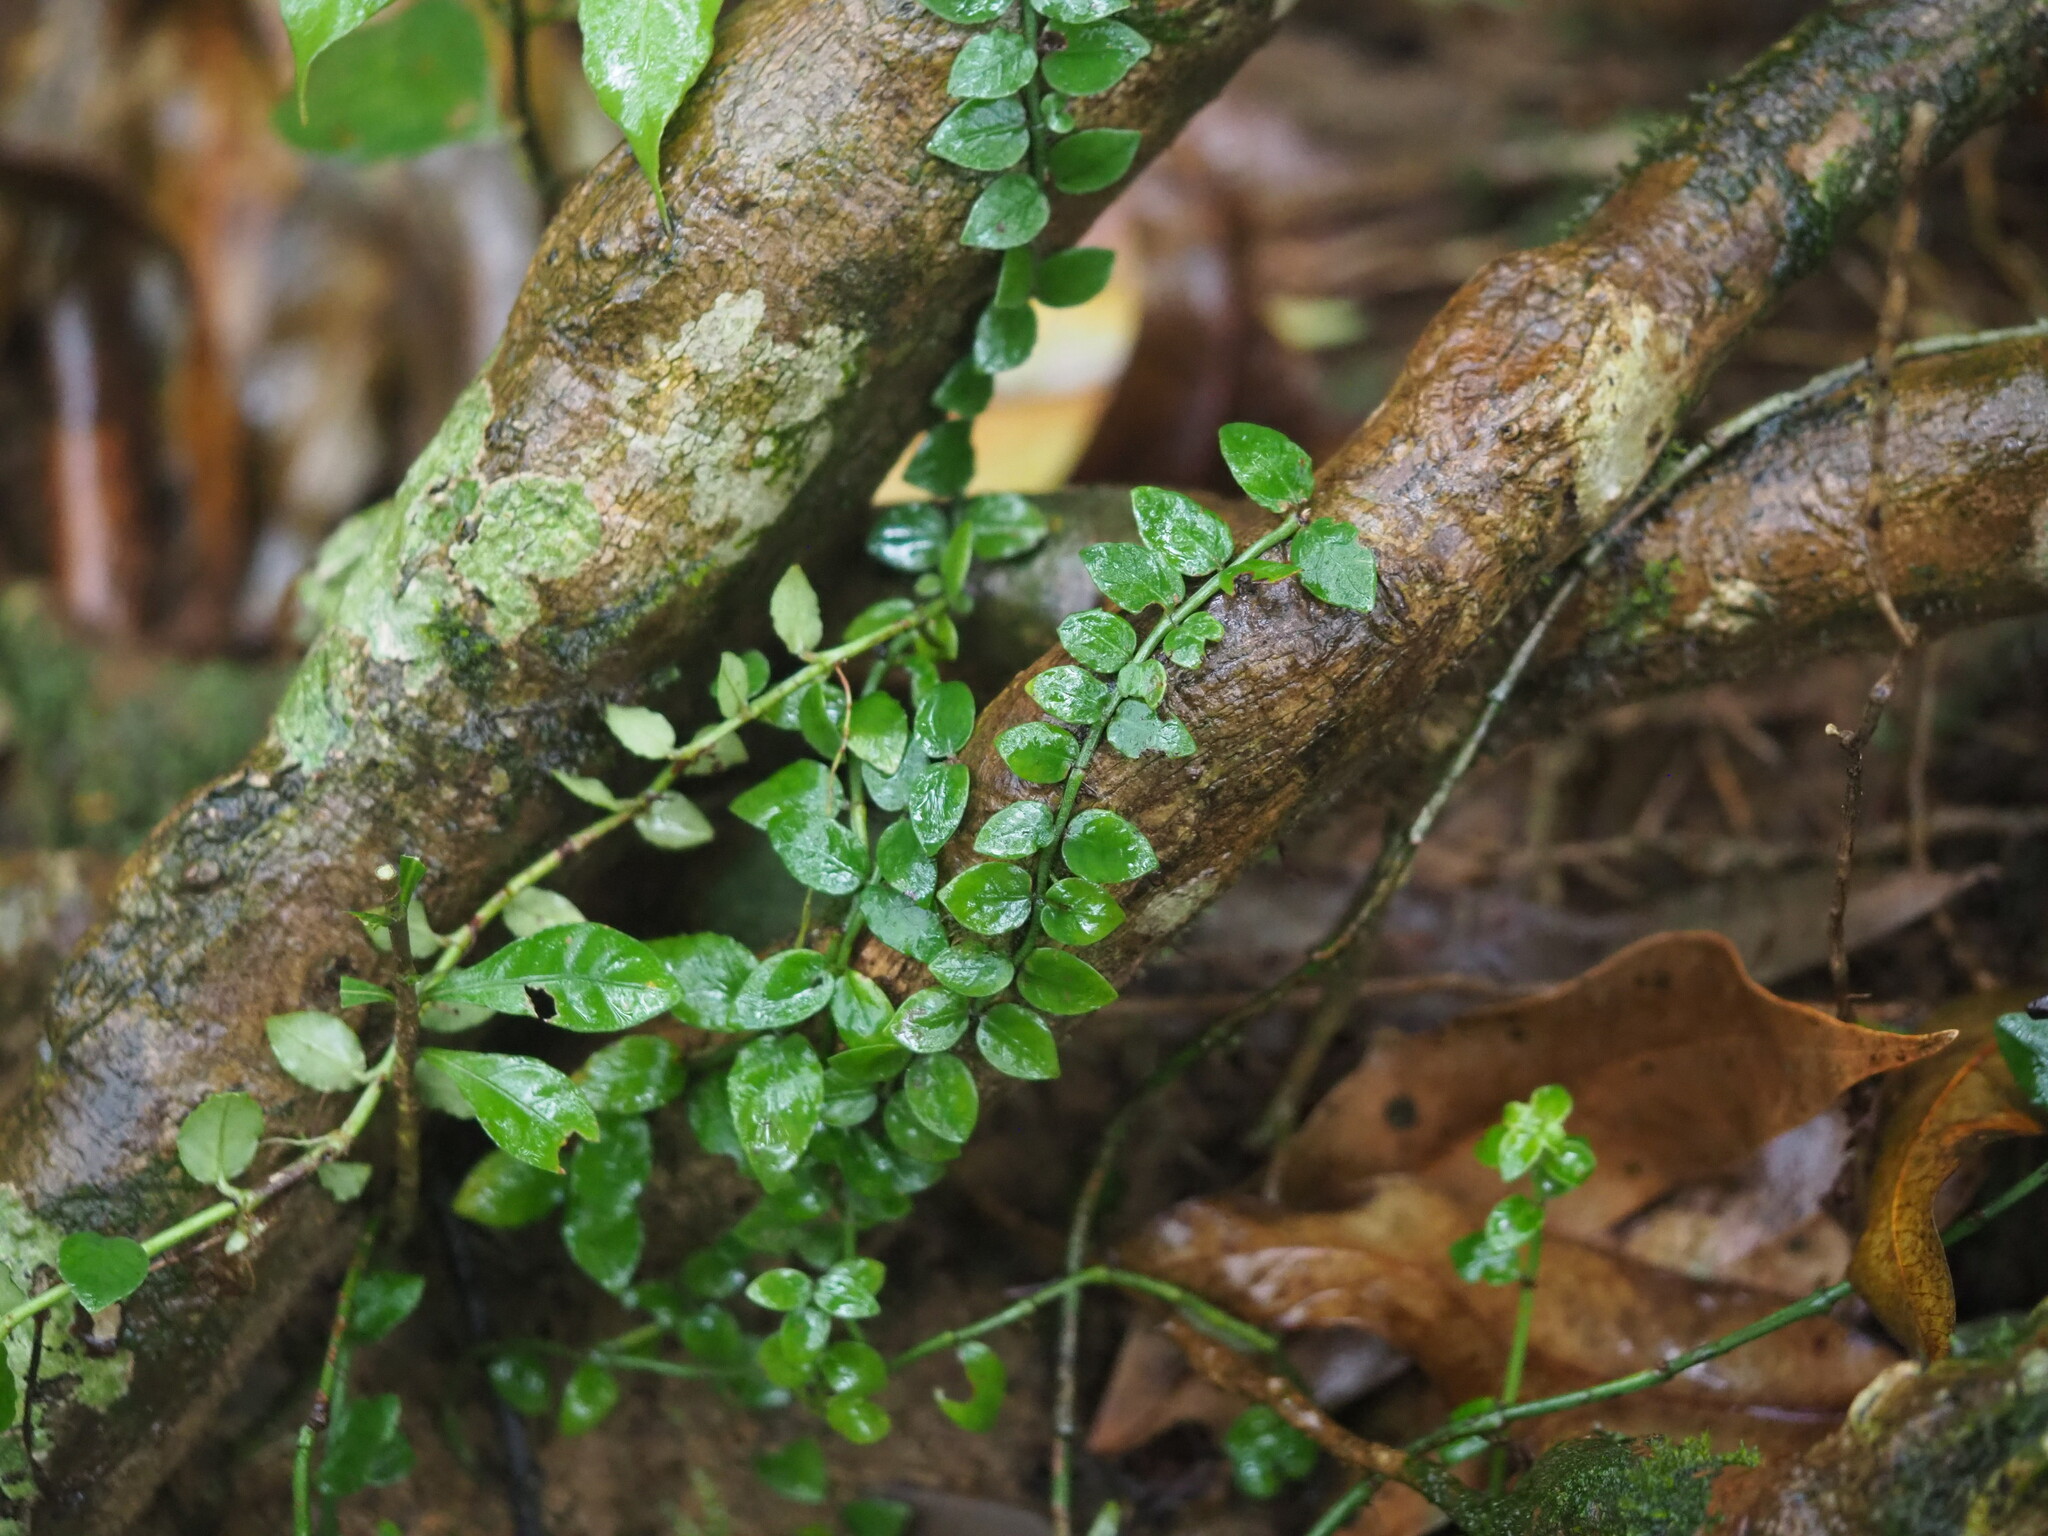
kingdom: Plantae
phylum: Tracheophyta
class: Magnoliopsida
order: Gentianales
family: Rubiaceae
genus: Psychotria
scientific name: Psychotria serpens
